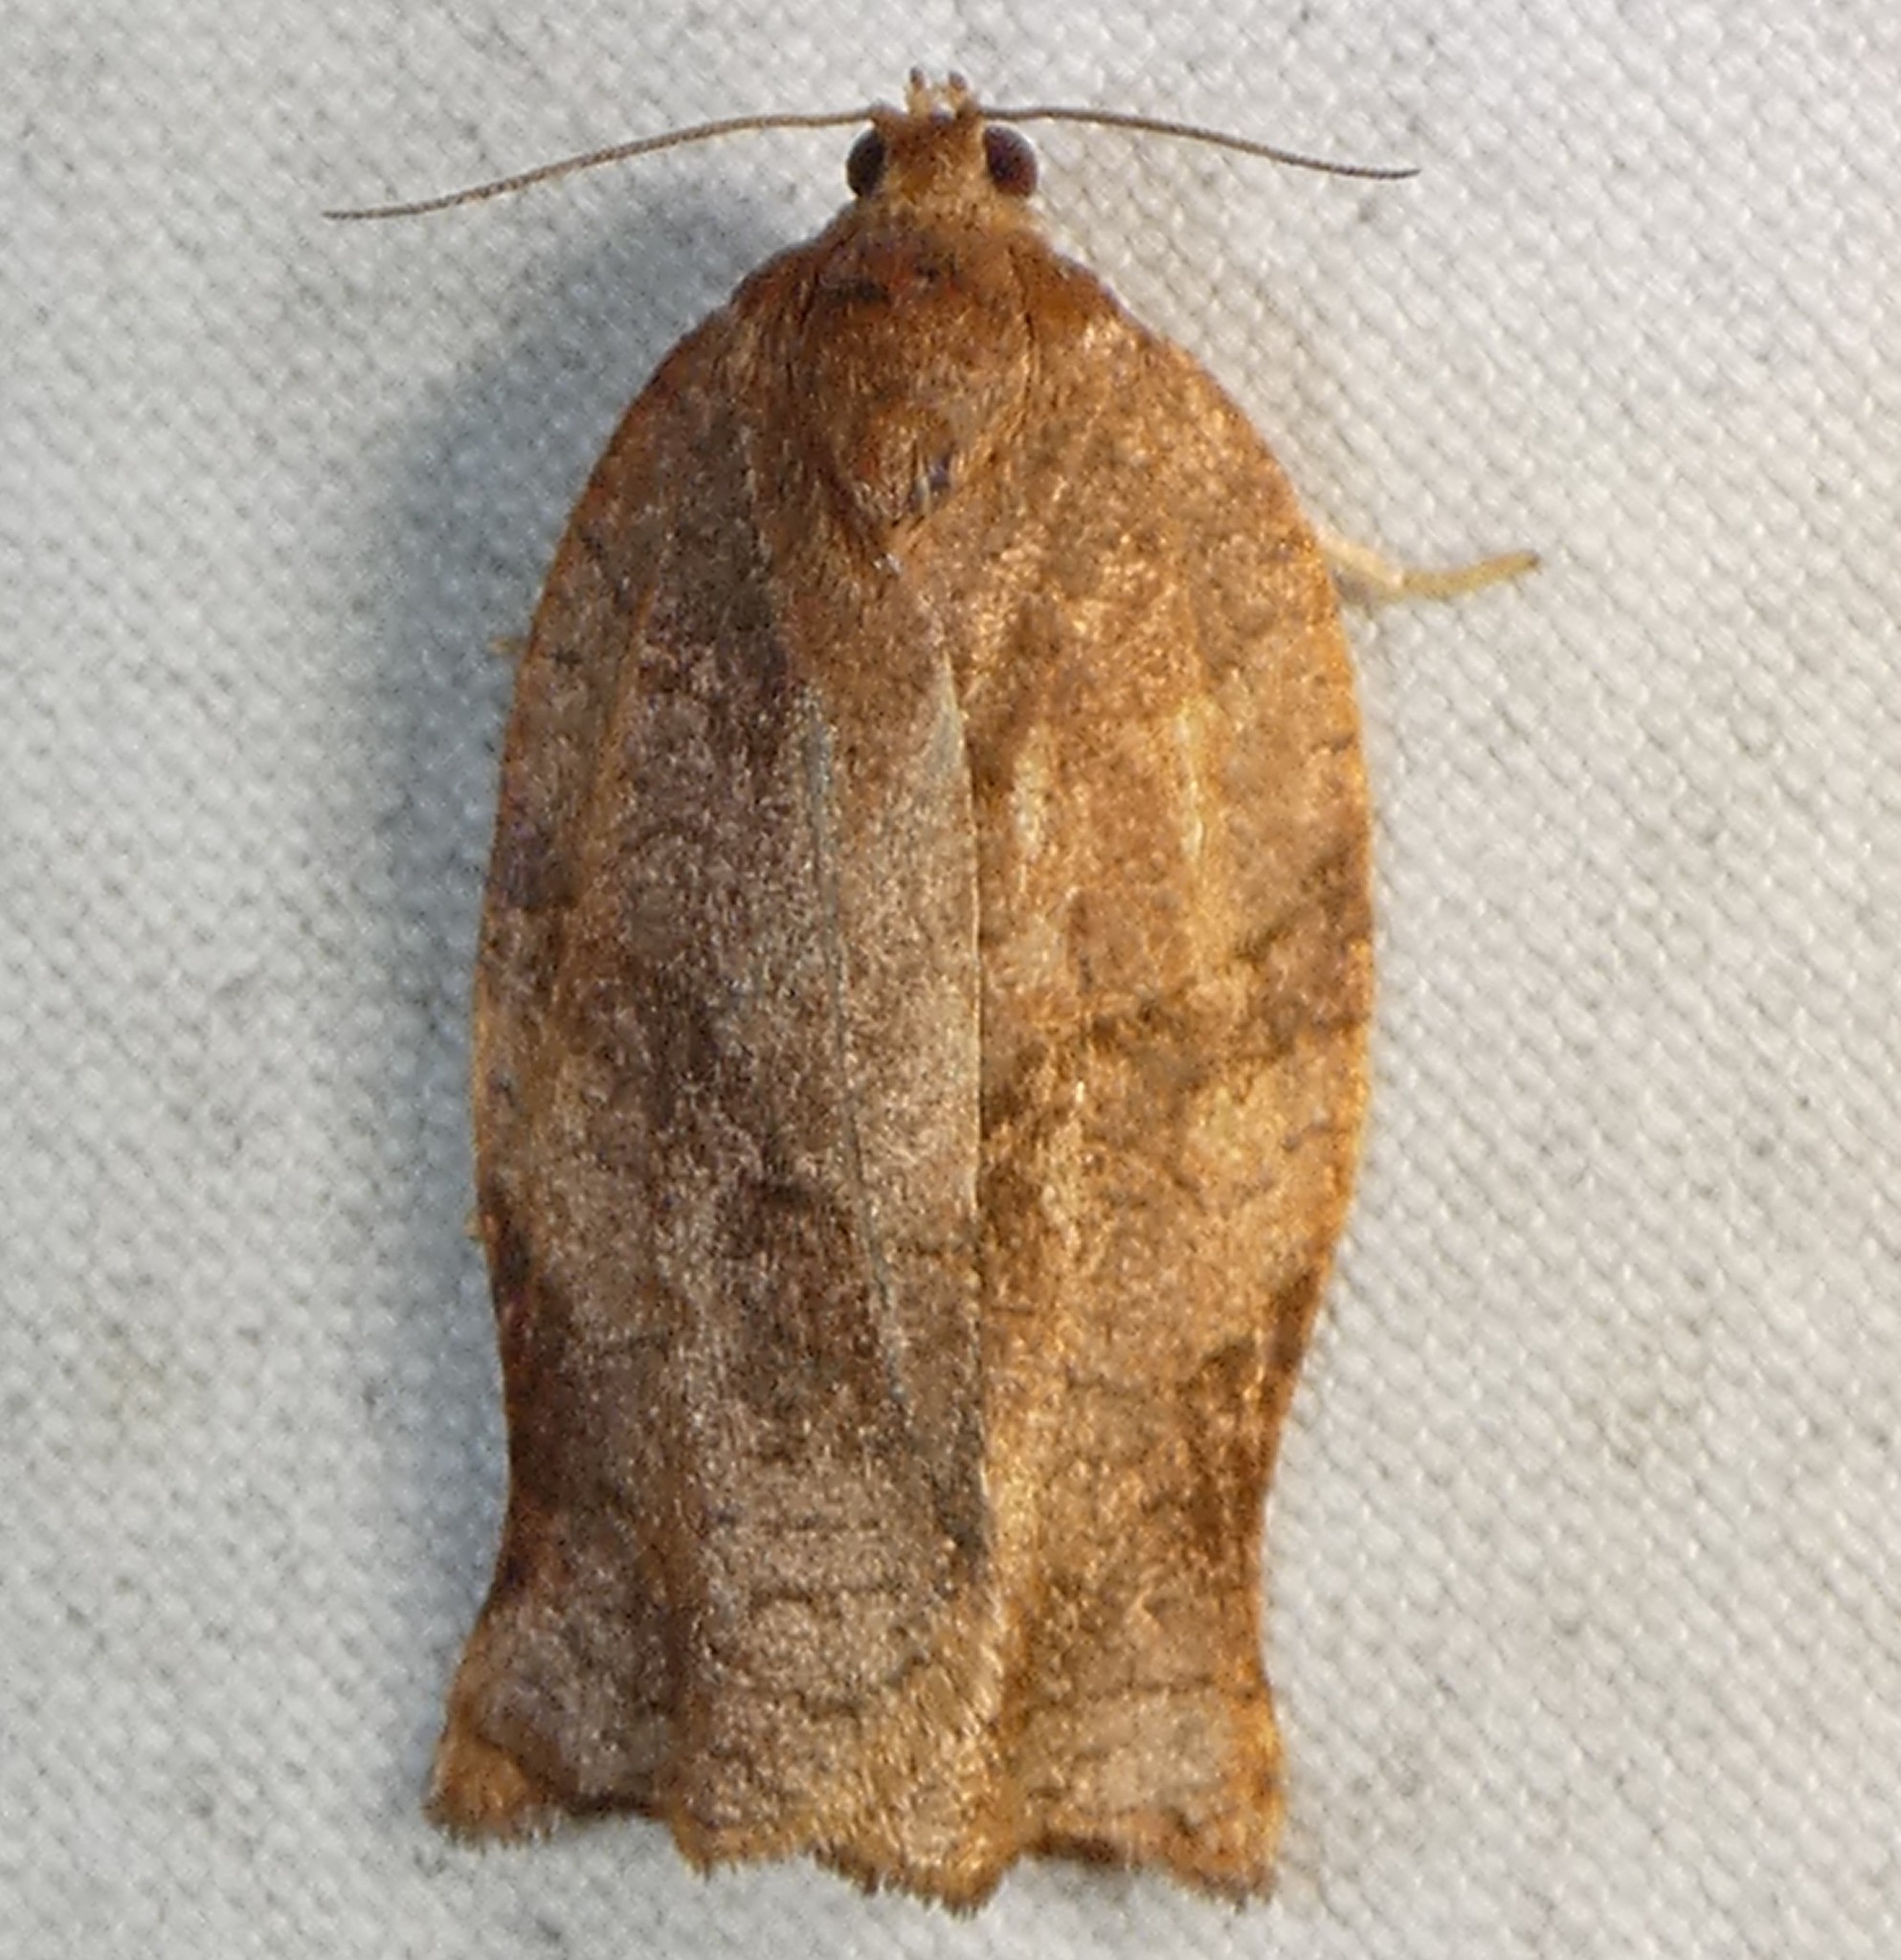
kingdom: Animalia
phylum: Arthropoda
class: Insecta
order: Lepidoptera
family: Tortricidae
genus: Choristoneura
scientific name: Choristoneura rosaceana
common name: Oblique-banded leafroller moth
